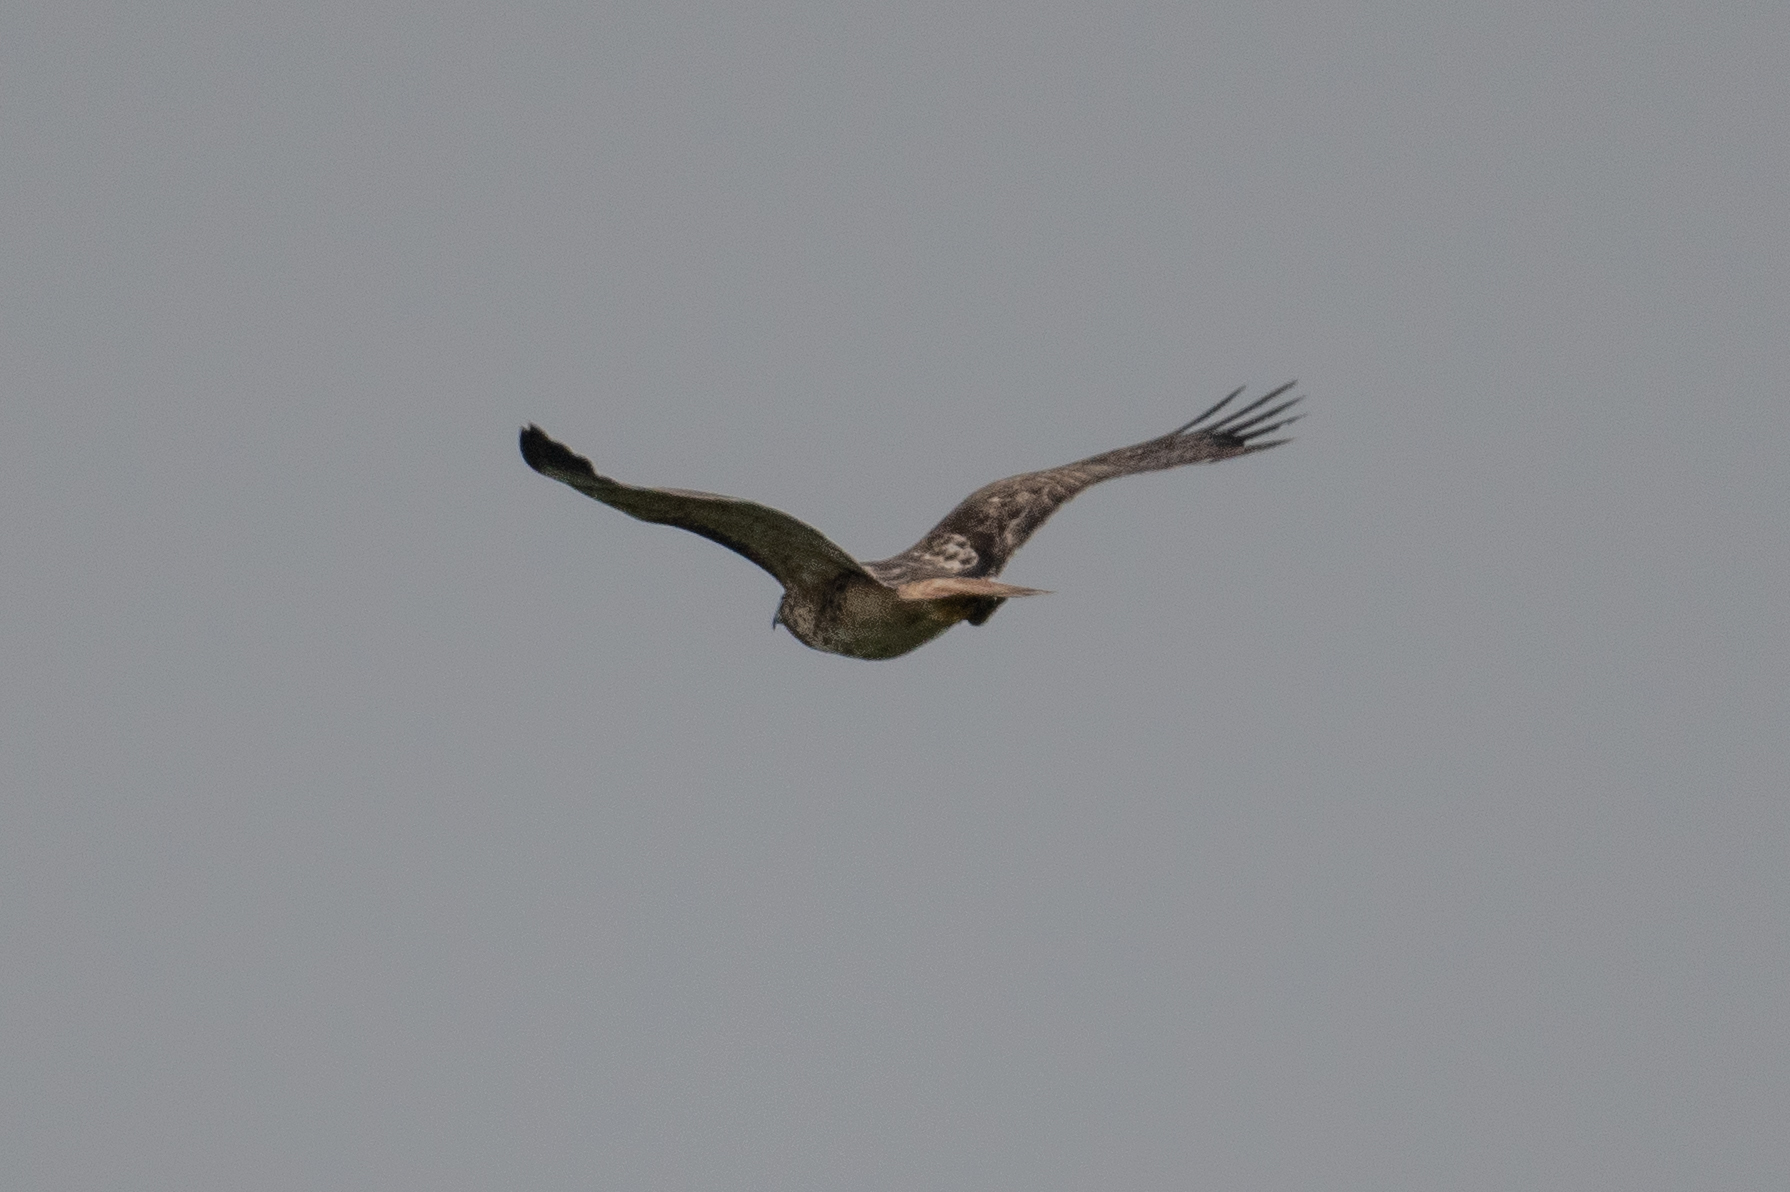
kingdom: Animalia
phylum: Chordata
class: Aves
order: Accipitriformes
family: Accipitridae
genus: Buteo
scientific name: Buteo jamaicensis
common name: Red-tailed hawk
